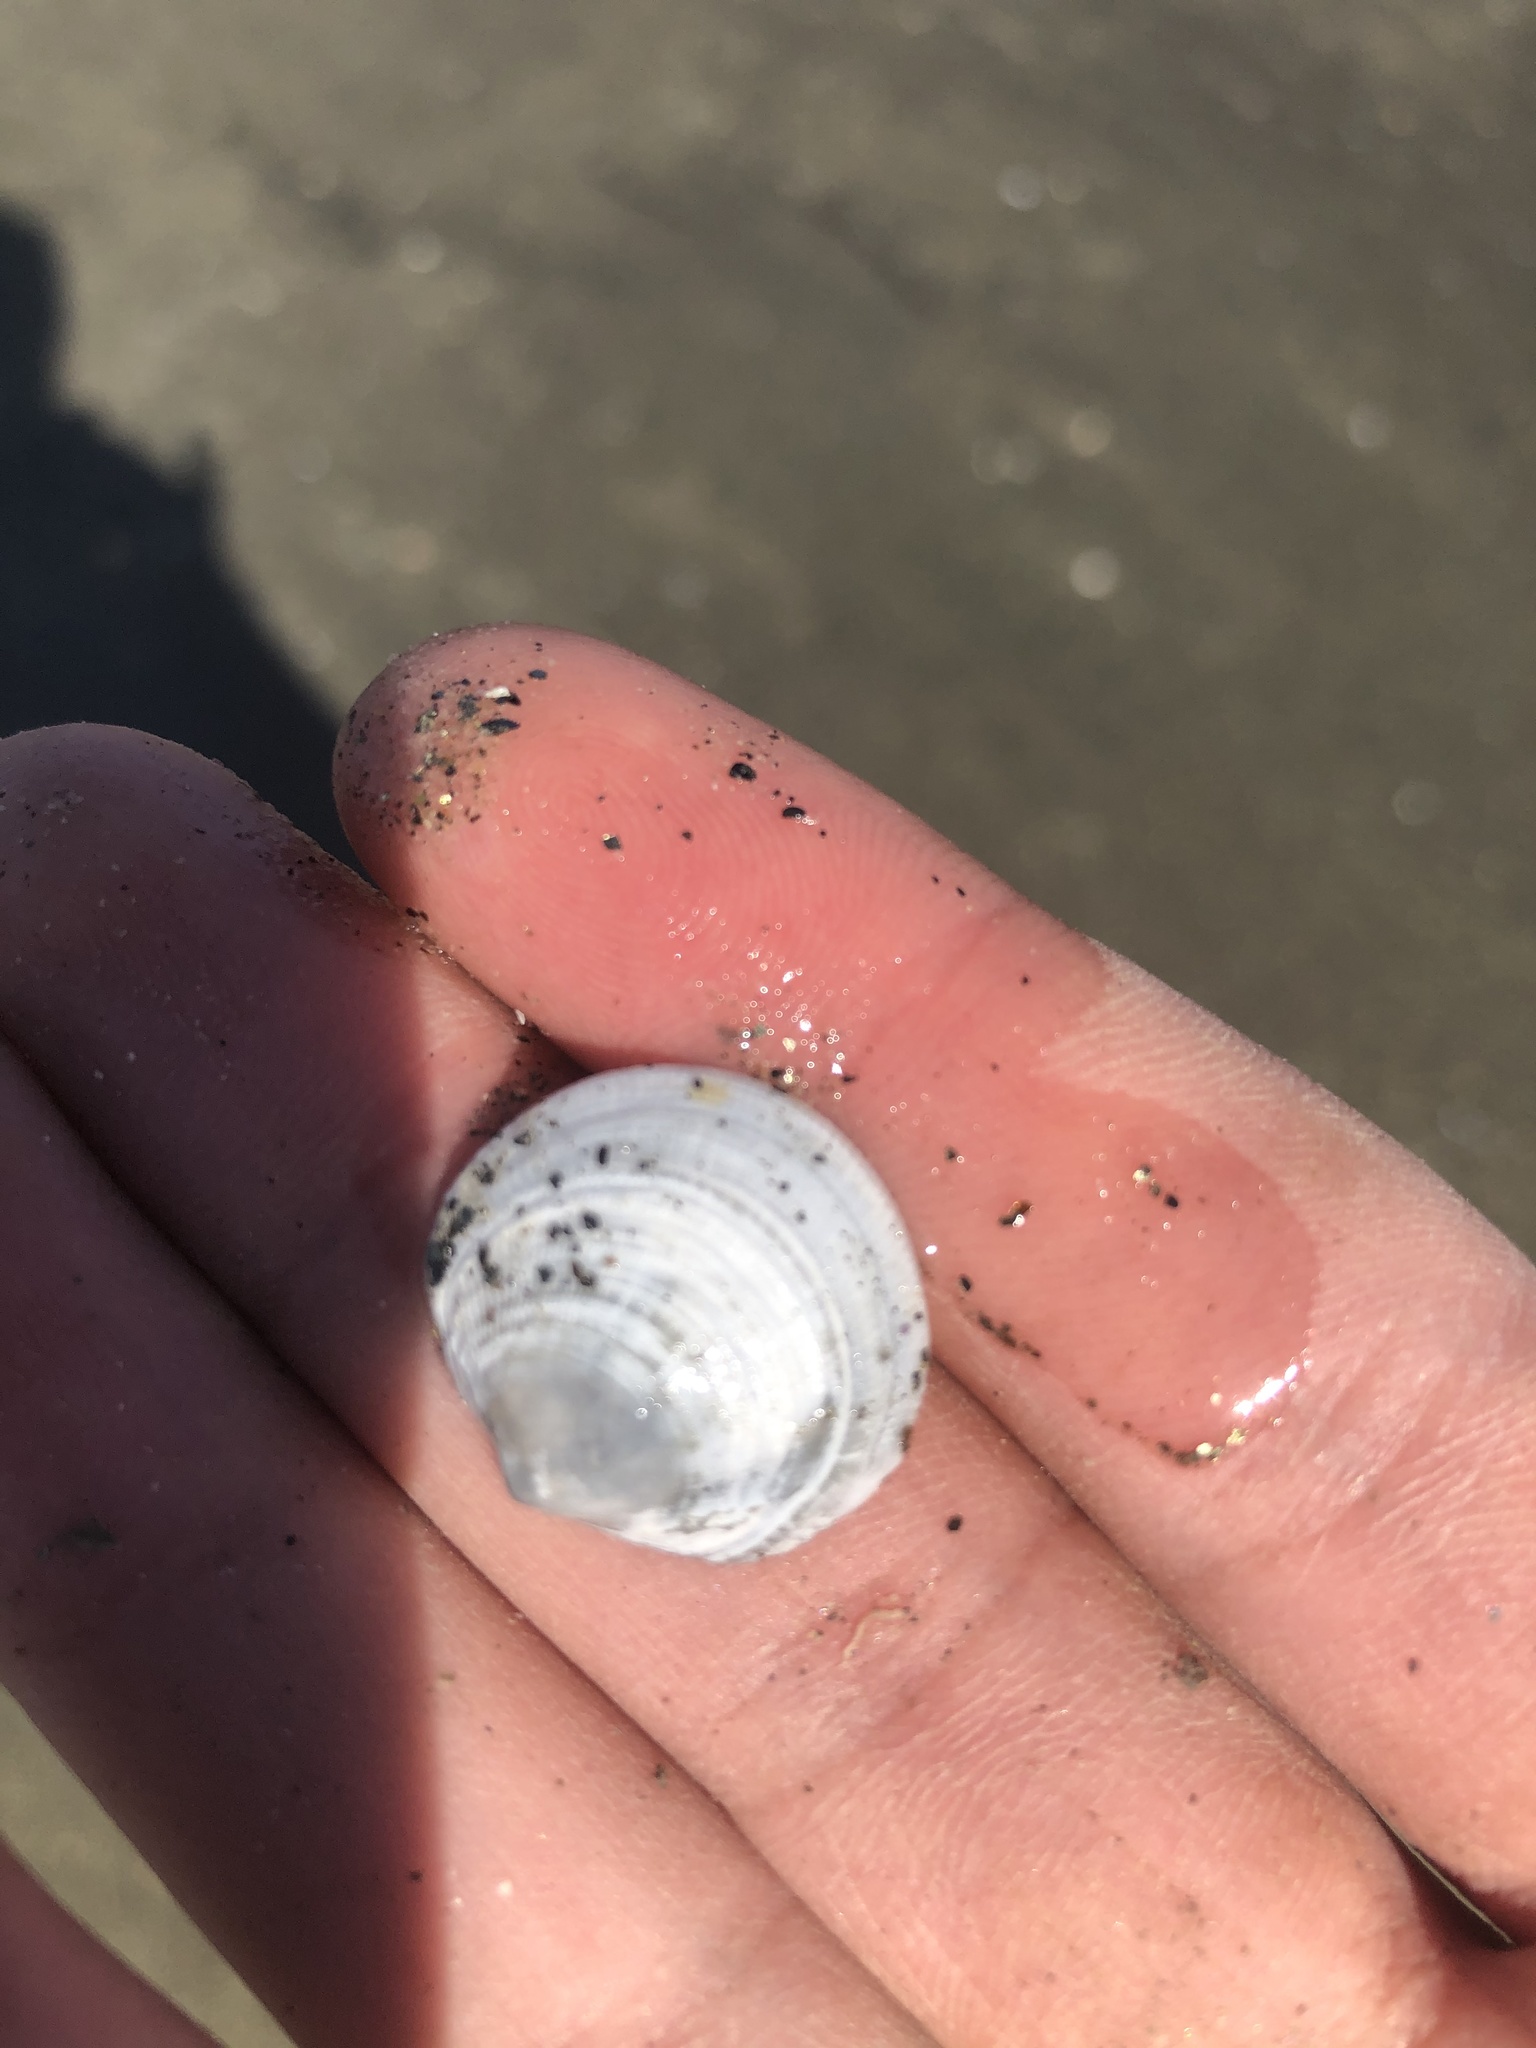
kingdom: Animalia
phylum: Mollusca
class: Bivalvia
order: Lucinida
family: Lucinidae
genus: Lucinisca
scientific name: Lucinisca nuttalli
